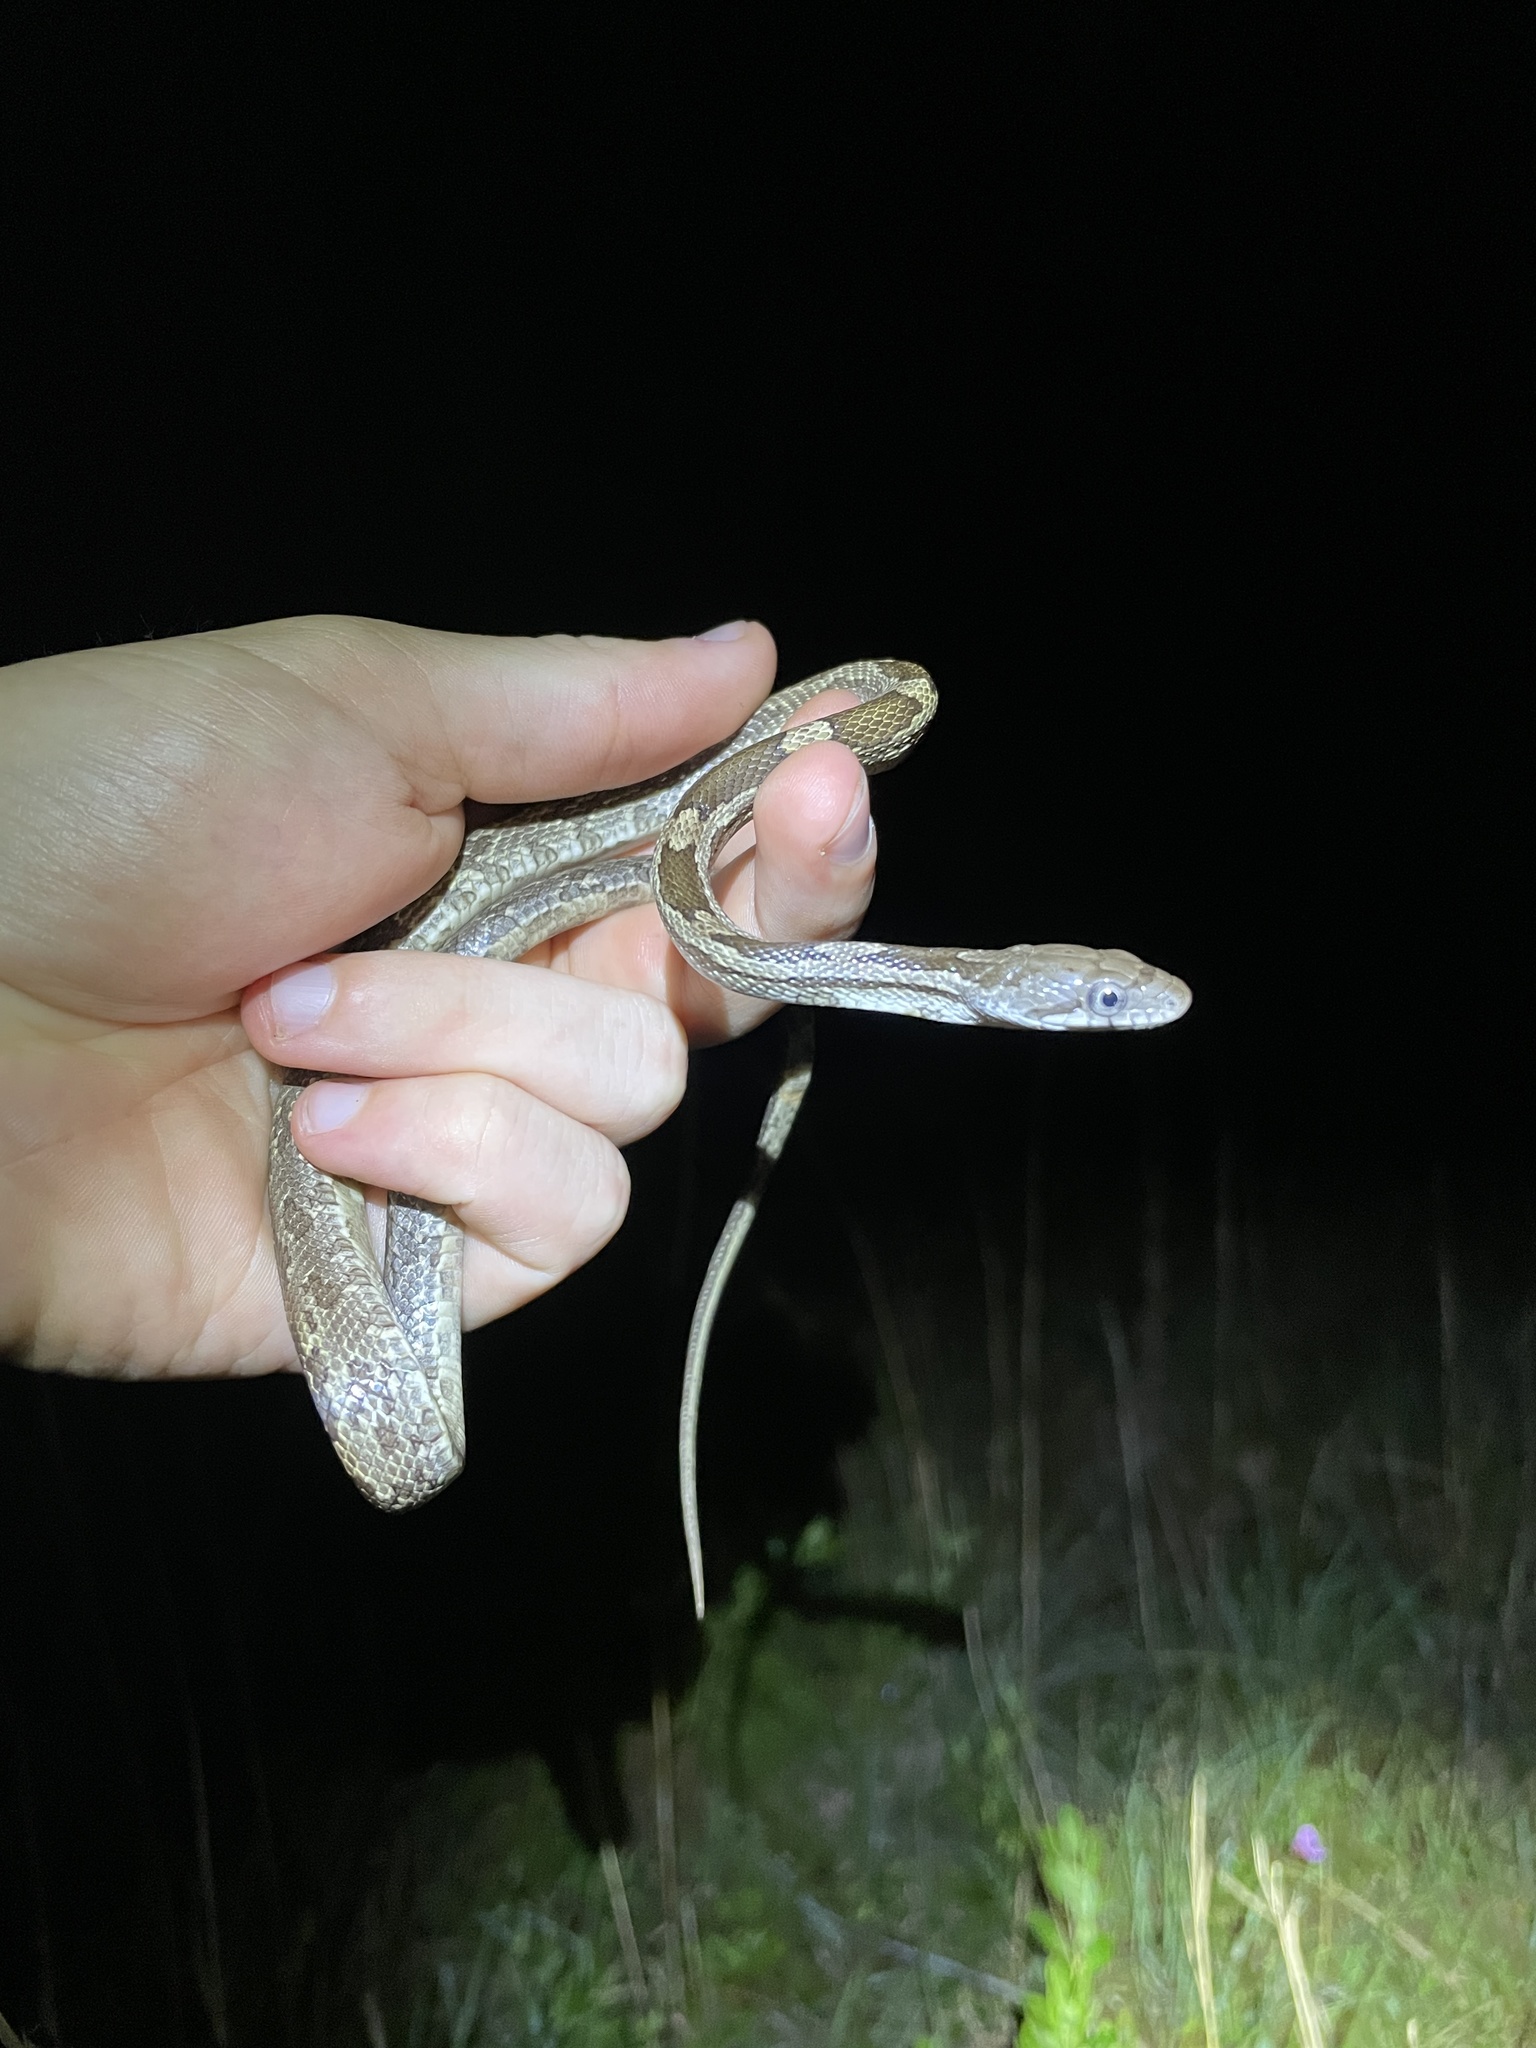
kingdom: Animalia
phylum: Chordata
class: Squamata
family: Colubridae
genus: Pantherophis
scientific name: Pantherophis spiloides
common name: Gray rat snake
